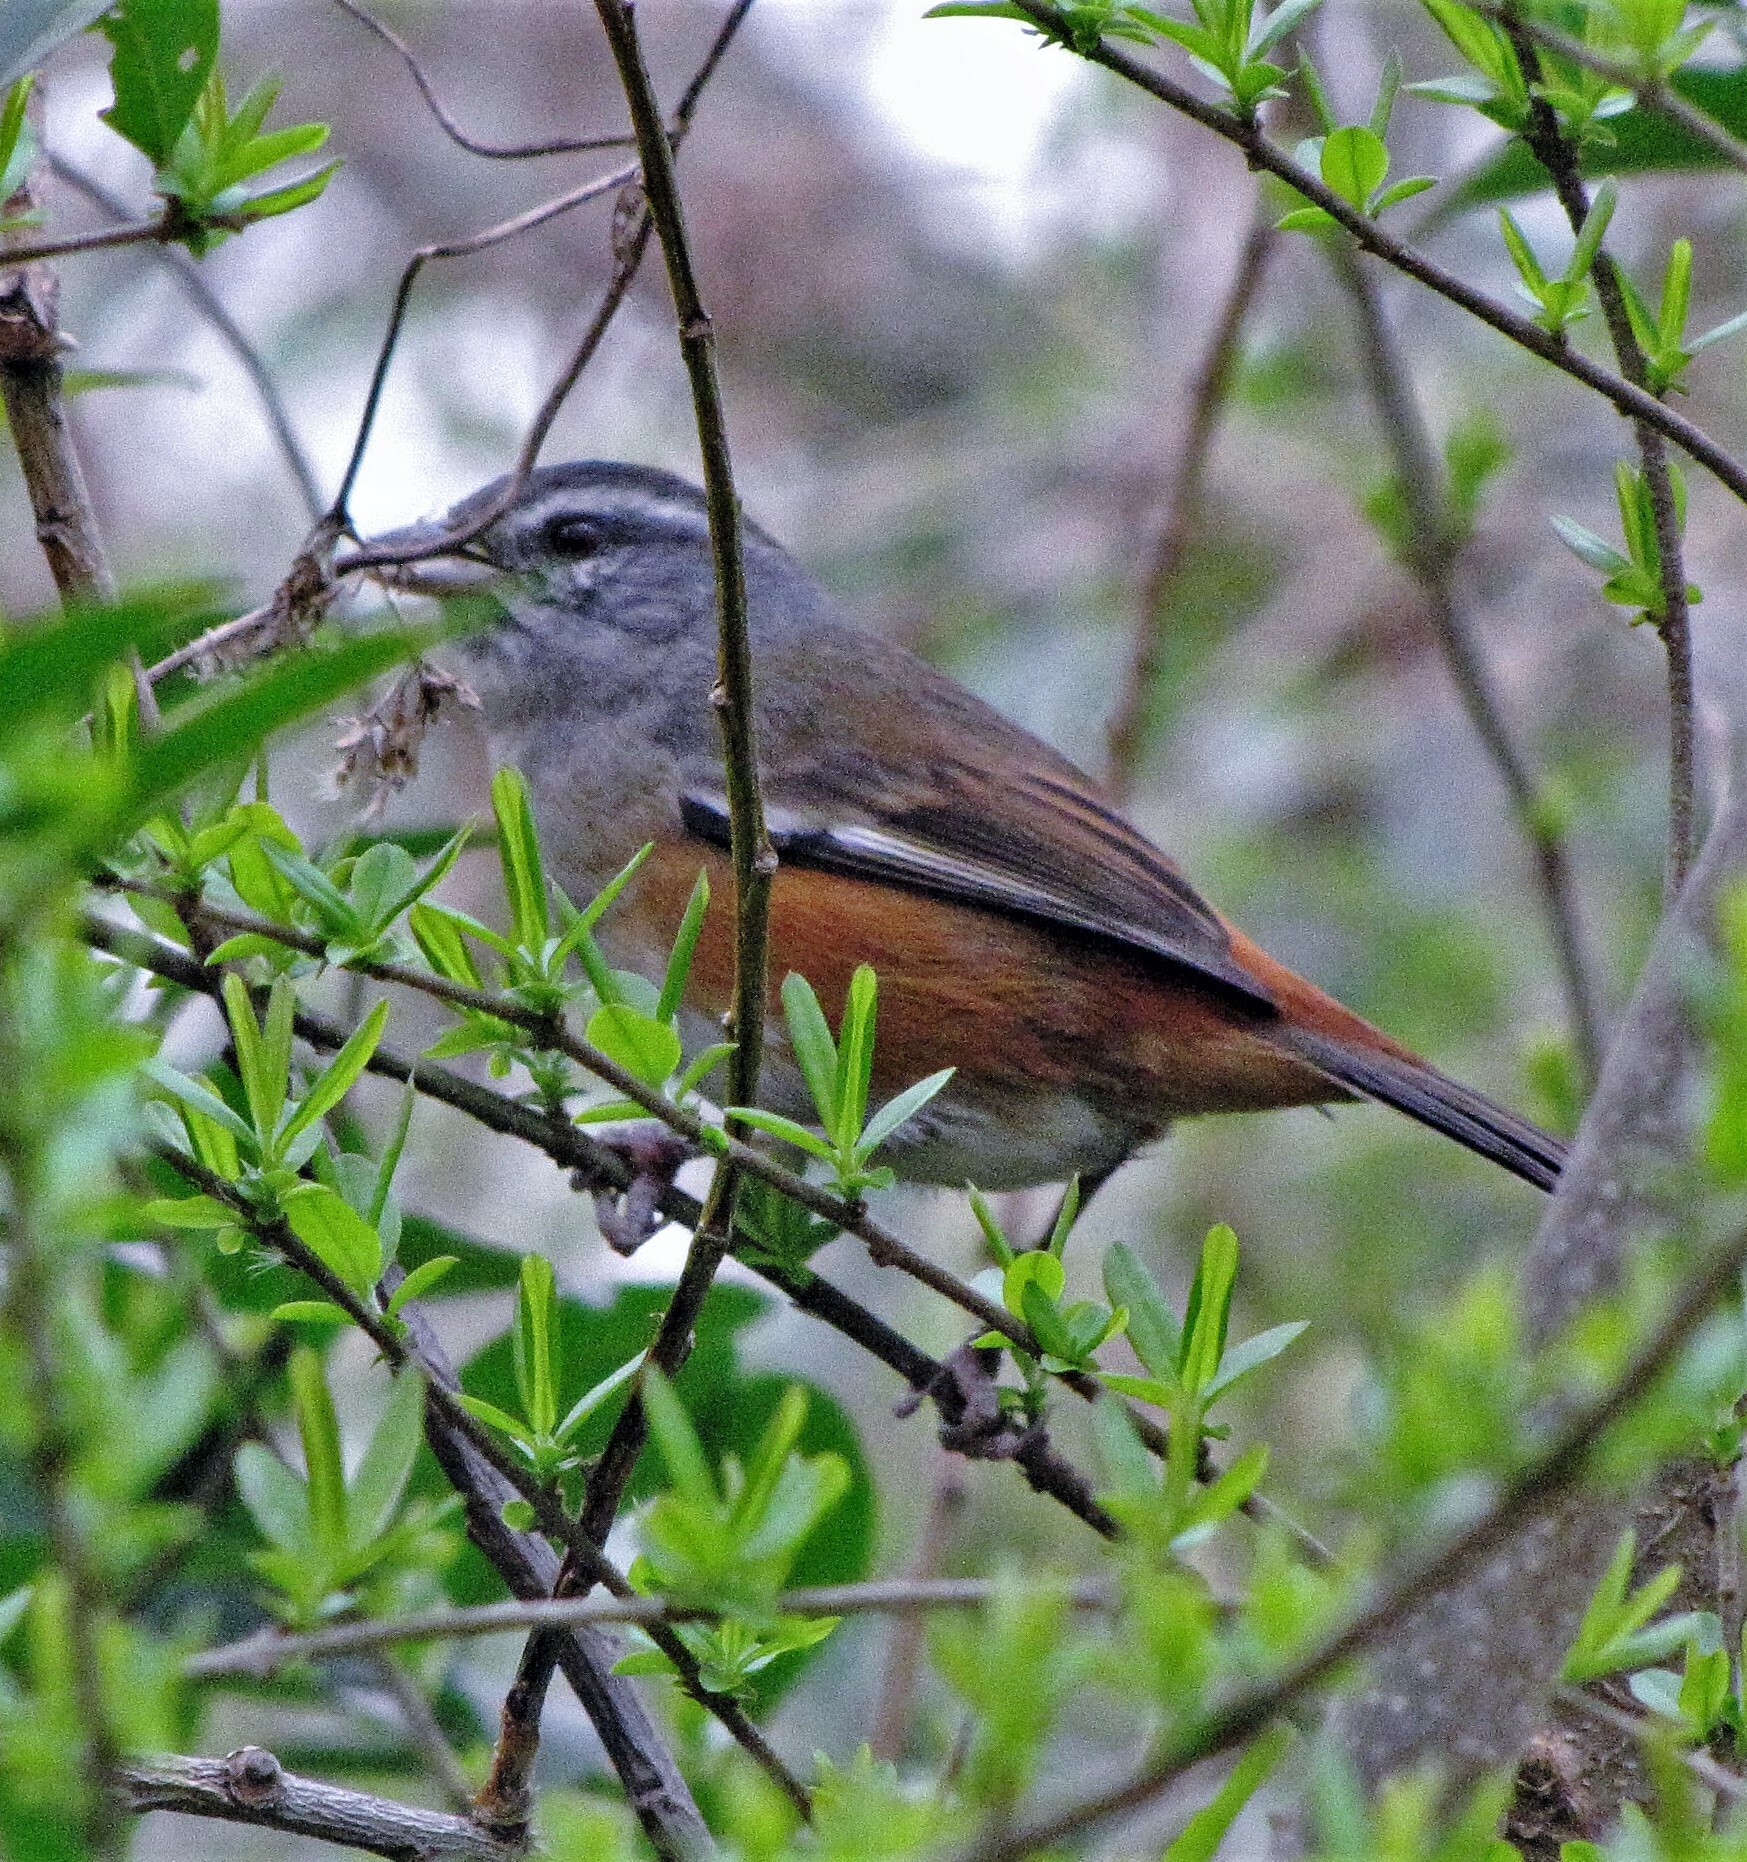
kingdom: Animalia
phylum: Chordata
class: Aves
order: Passeriformes
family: Thraupidae
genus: Microspingus
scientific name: Microspingus cabanisi
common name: Gray-throated warbling-finch
